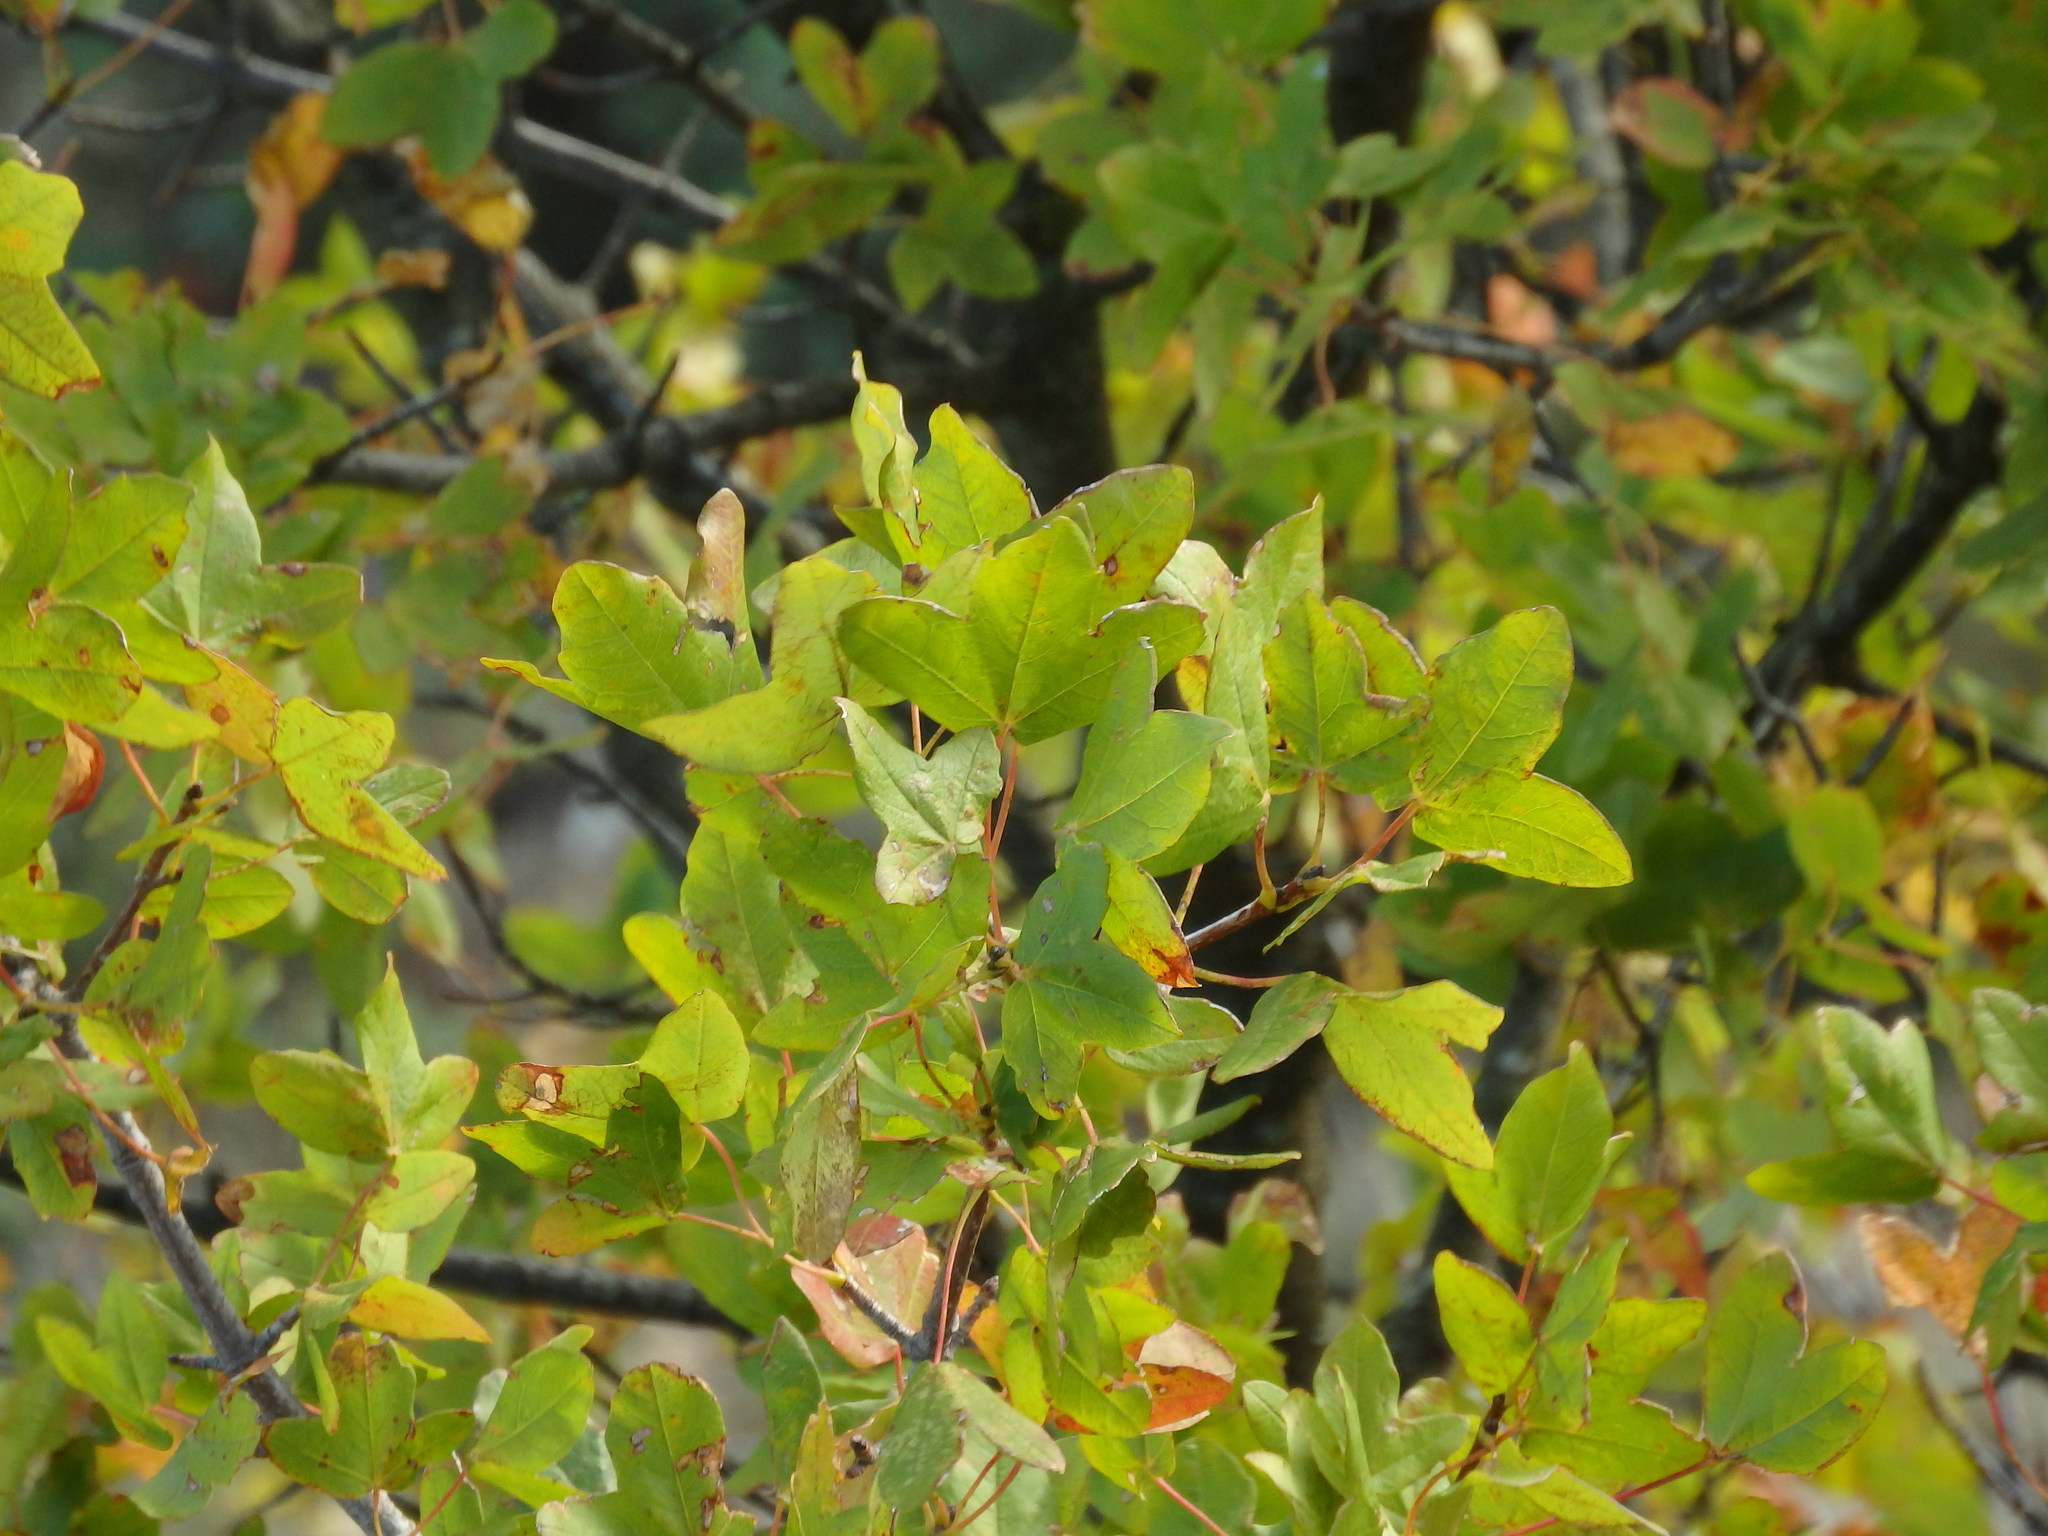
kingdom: Plantae
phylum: Tracheophyta
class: Magnoliopsida
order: Sapindales
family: Sapindaceae
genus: Acer
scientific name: Acer monspessulanum
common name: Montpellier maple
